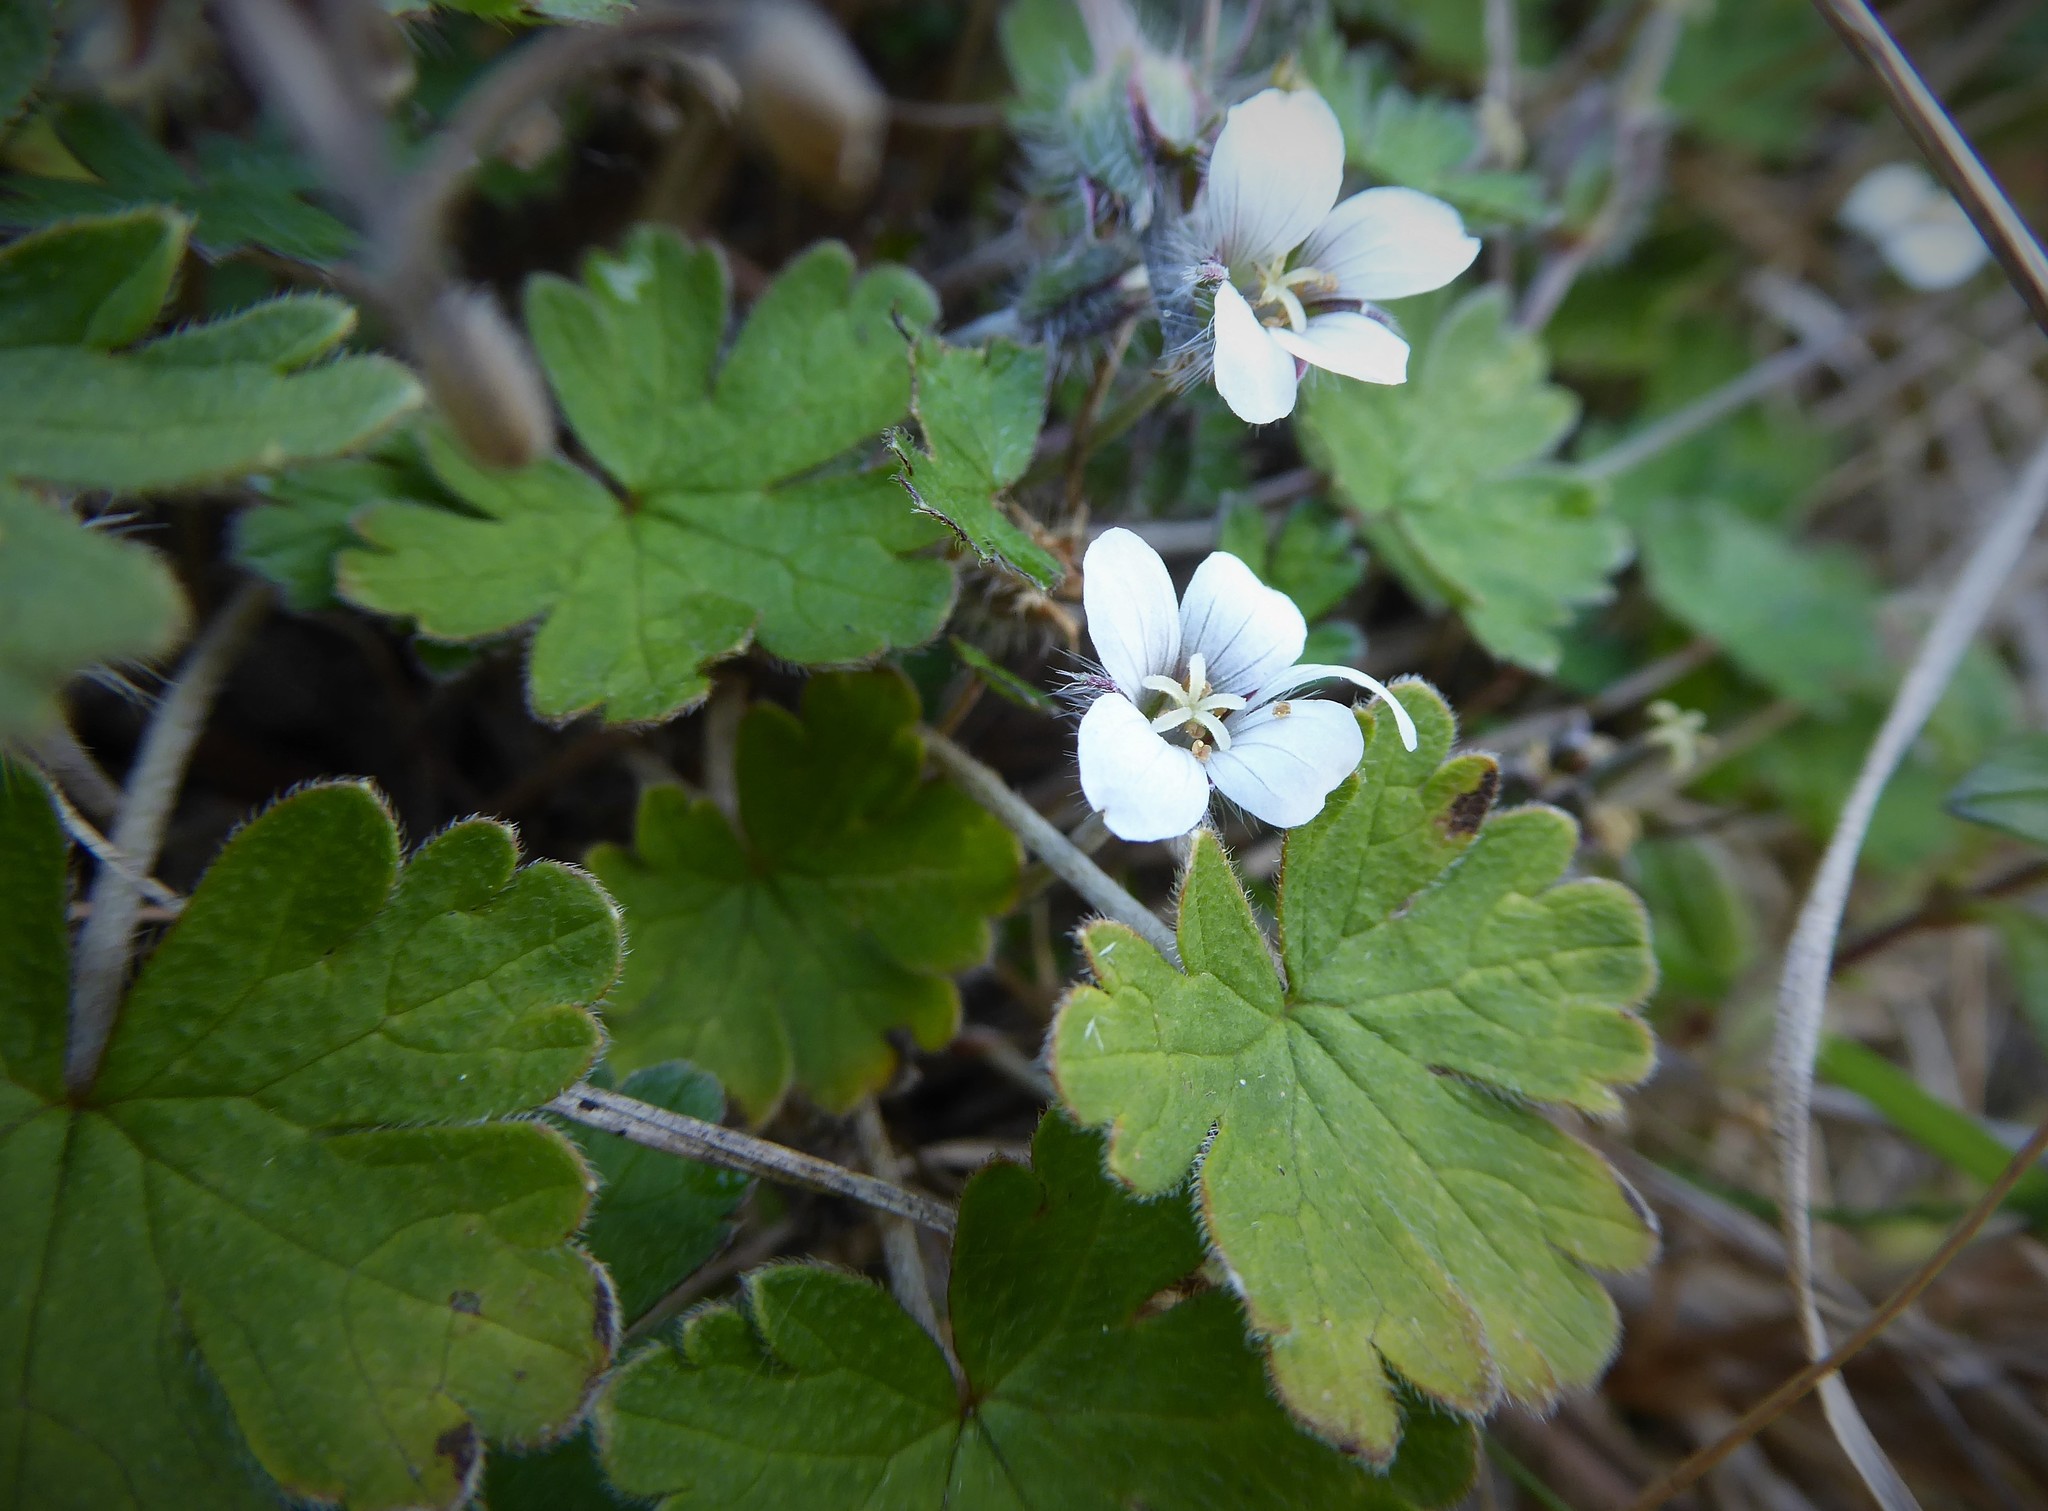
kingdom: Plantae
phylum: Tracheophyta
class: Magnoliopsida
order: Geraniales
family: Geraniaceae
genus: Geranium
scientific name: Geranium brevicaule
